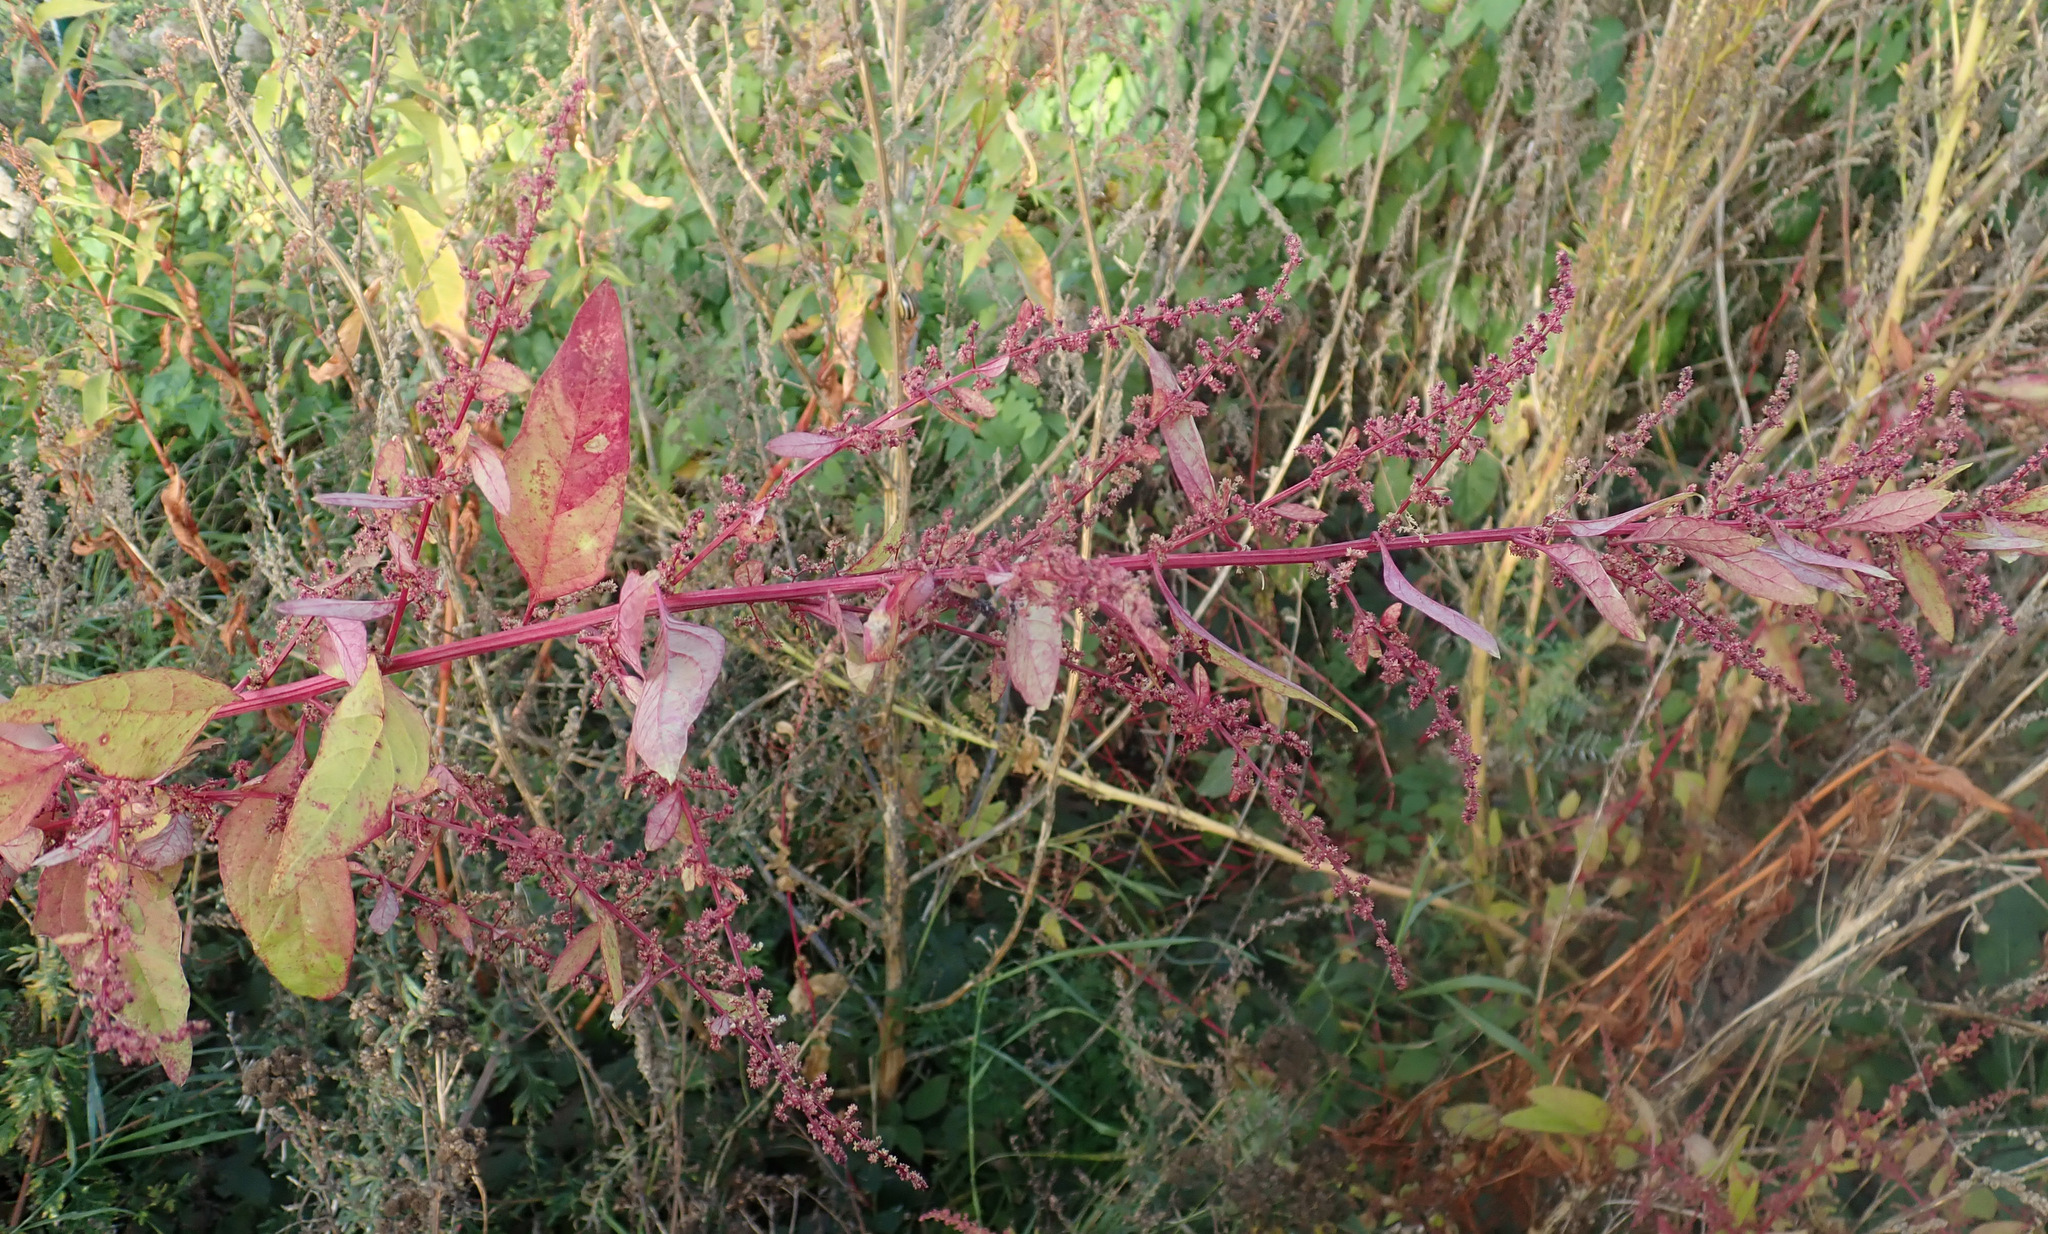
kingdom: Plantae
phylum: Tracheophyta
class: Magnoliopsida
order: Caryophyllales
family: Amaranthaceae
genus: Lipandra
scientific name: Lipandra polysperma
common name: Many-seed goosefoot
